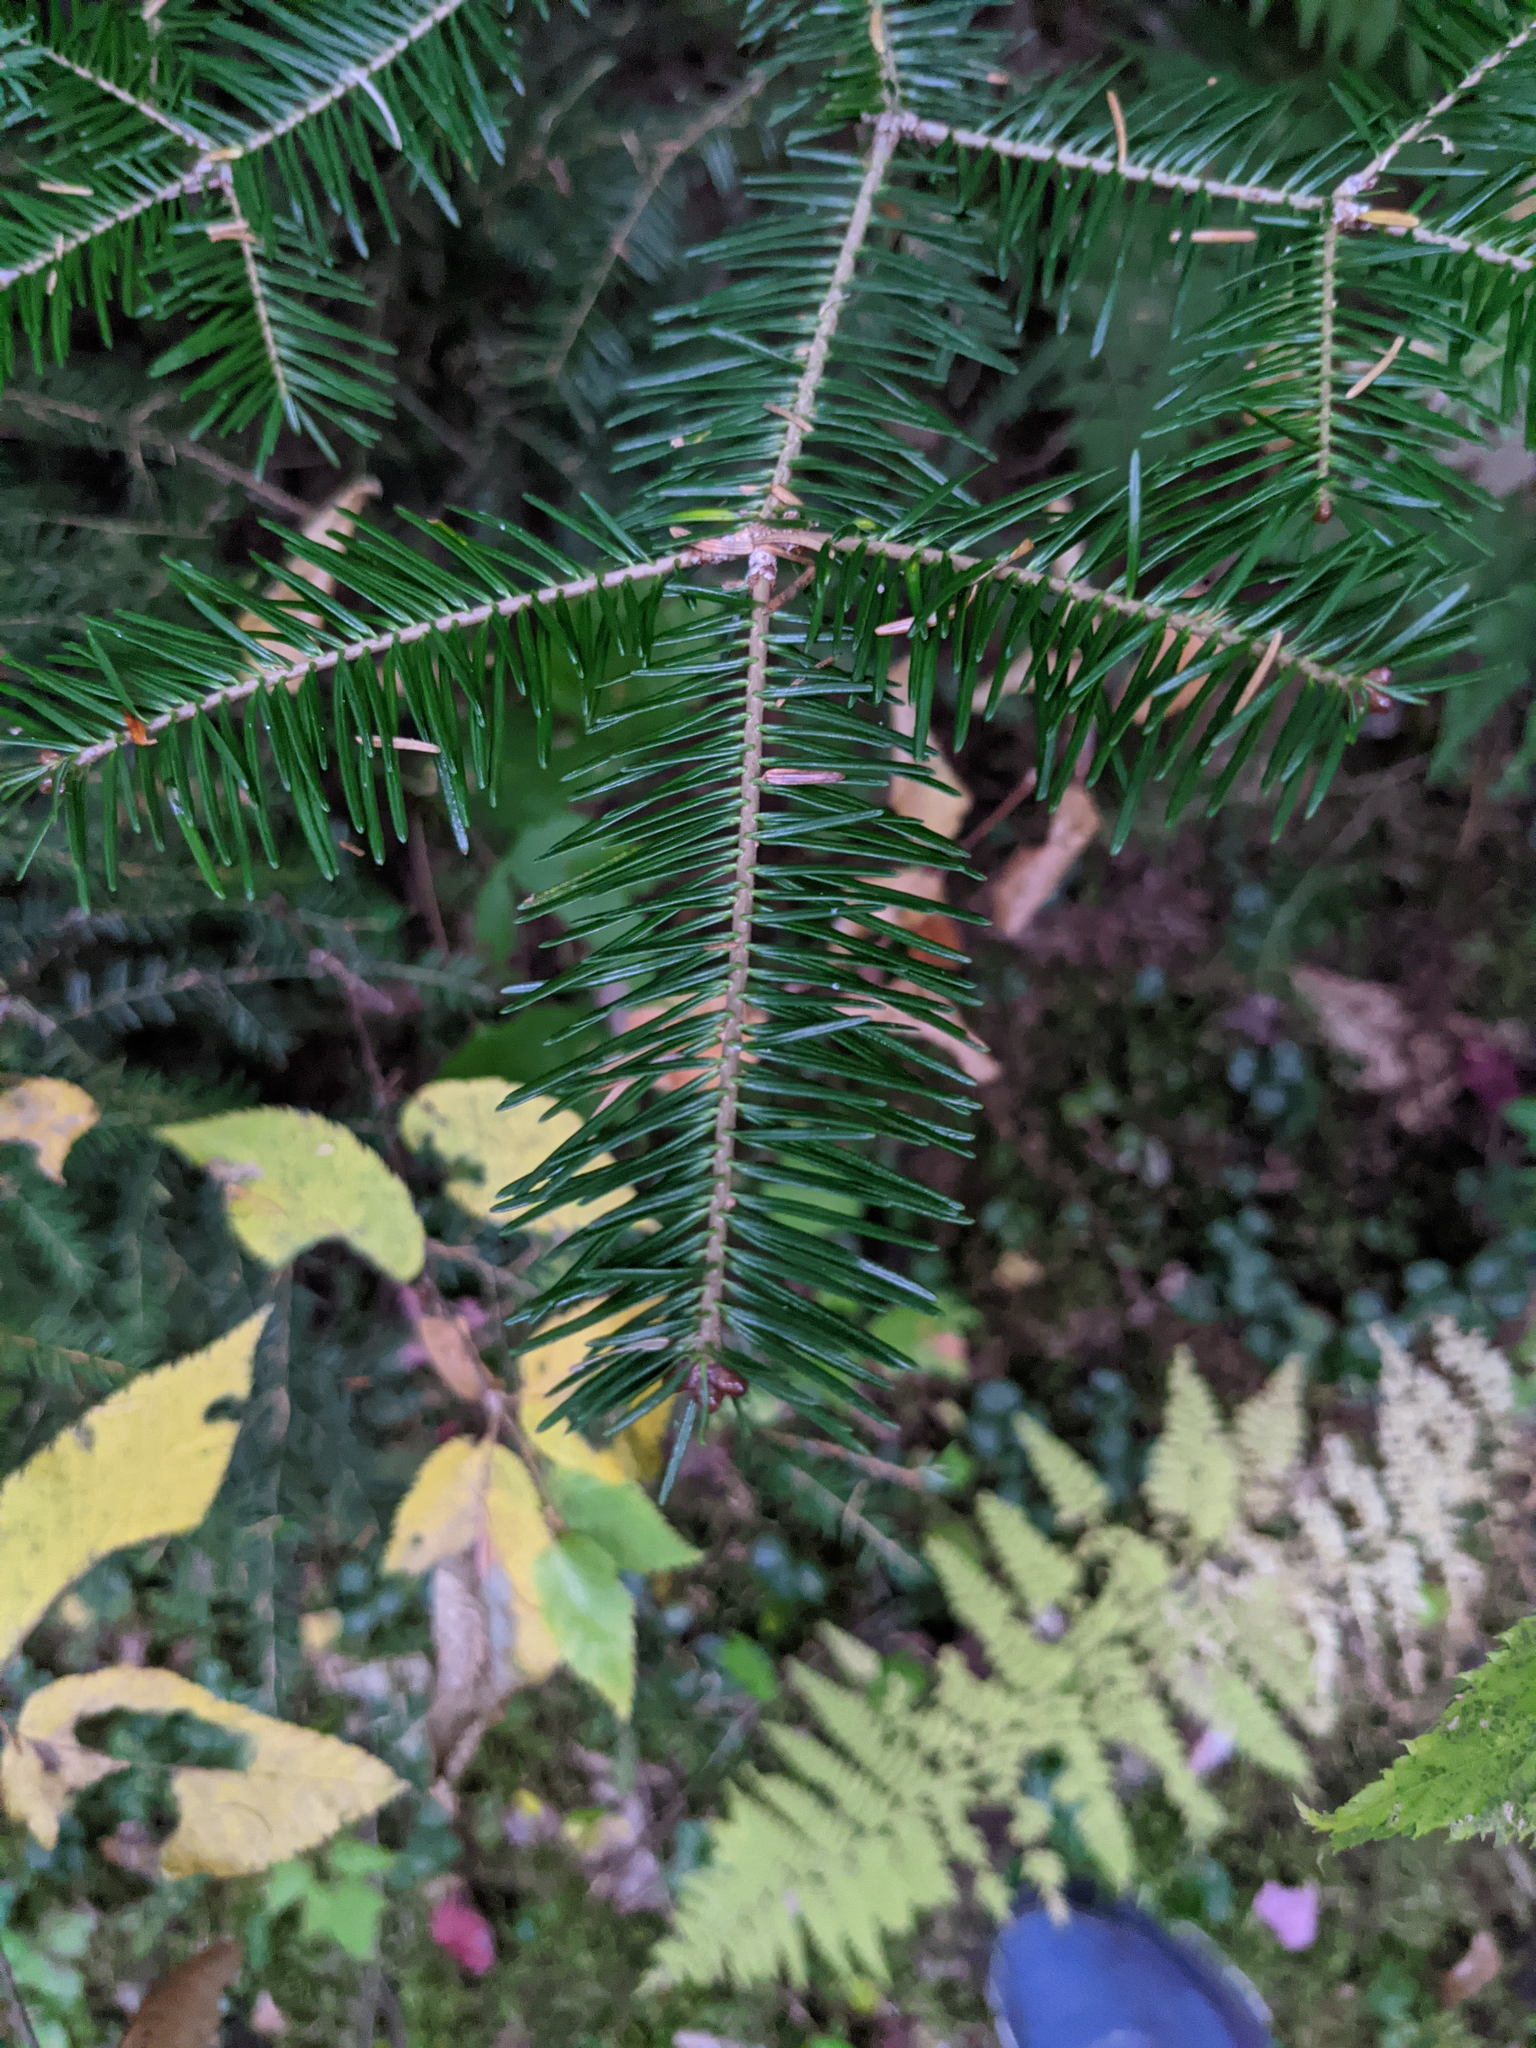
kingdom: Plantae
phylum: Tracheophyta
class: Pinopsida
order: Pinales
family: Pinaceae
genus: Abies
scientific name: Abies balsamea
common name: Balsam fir
